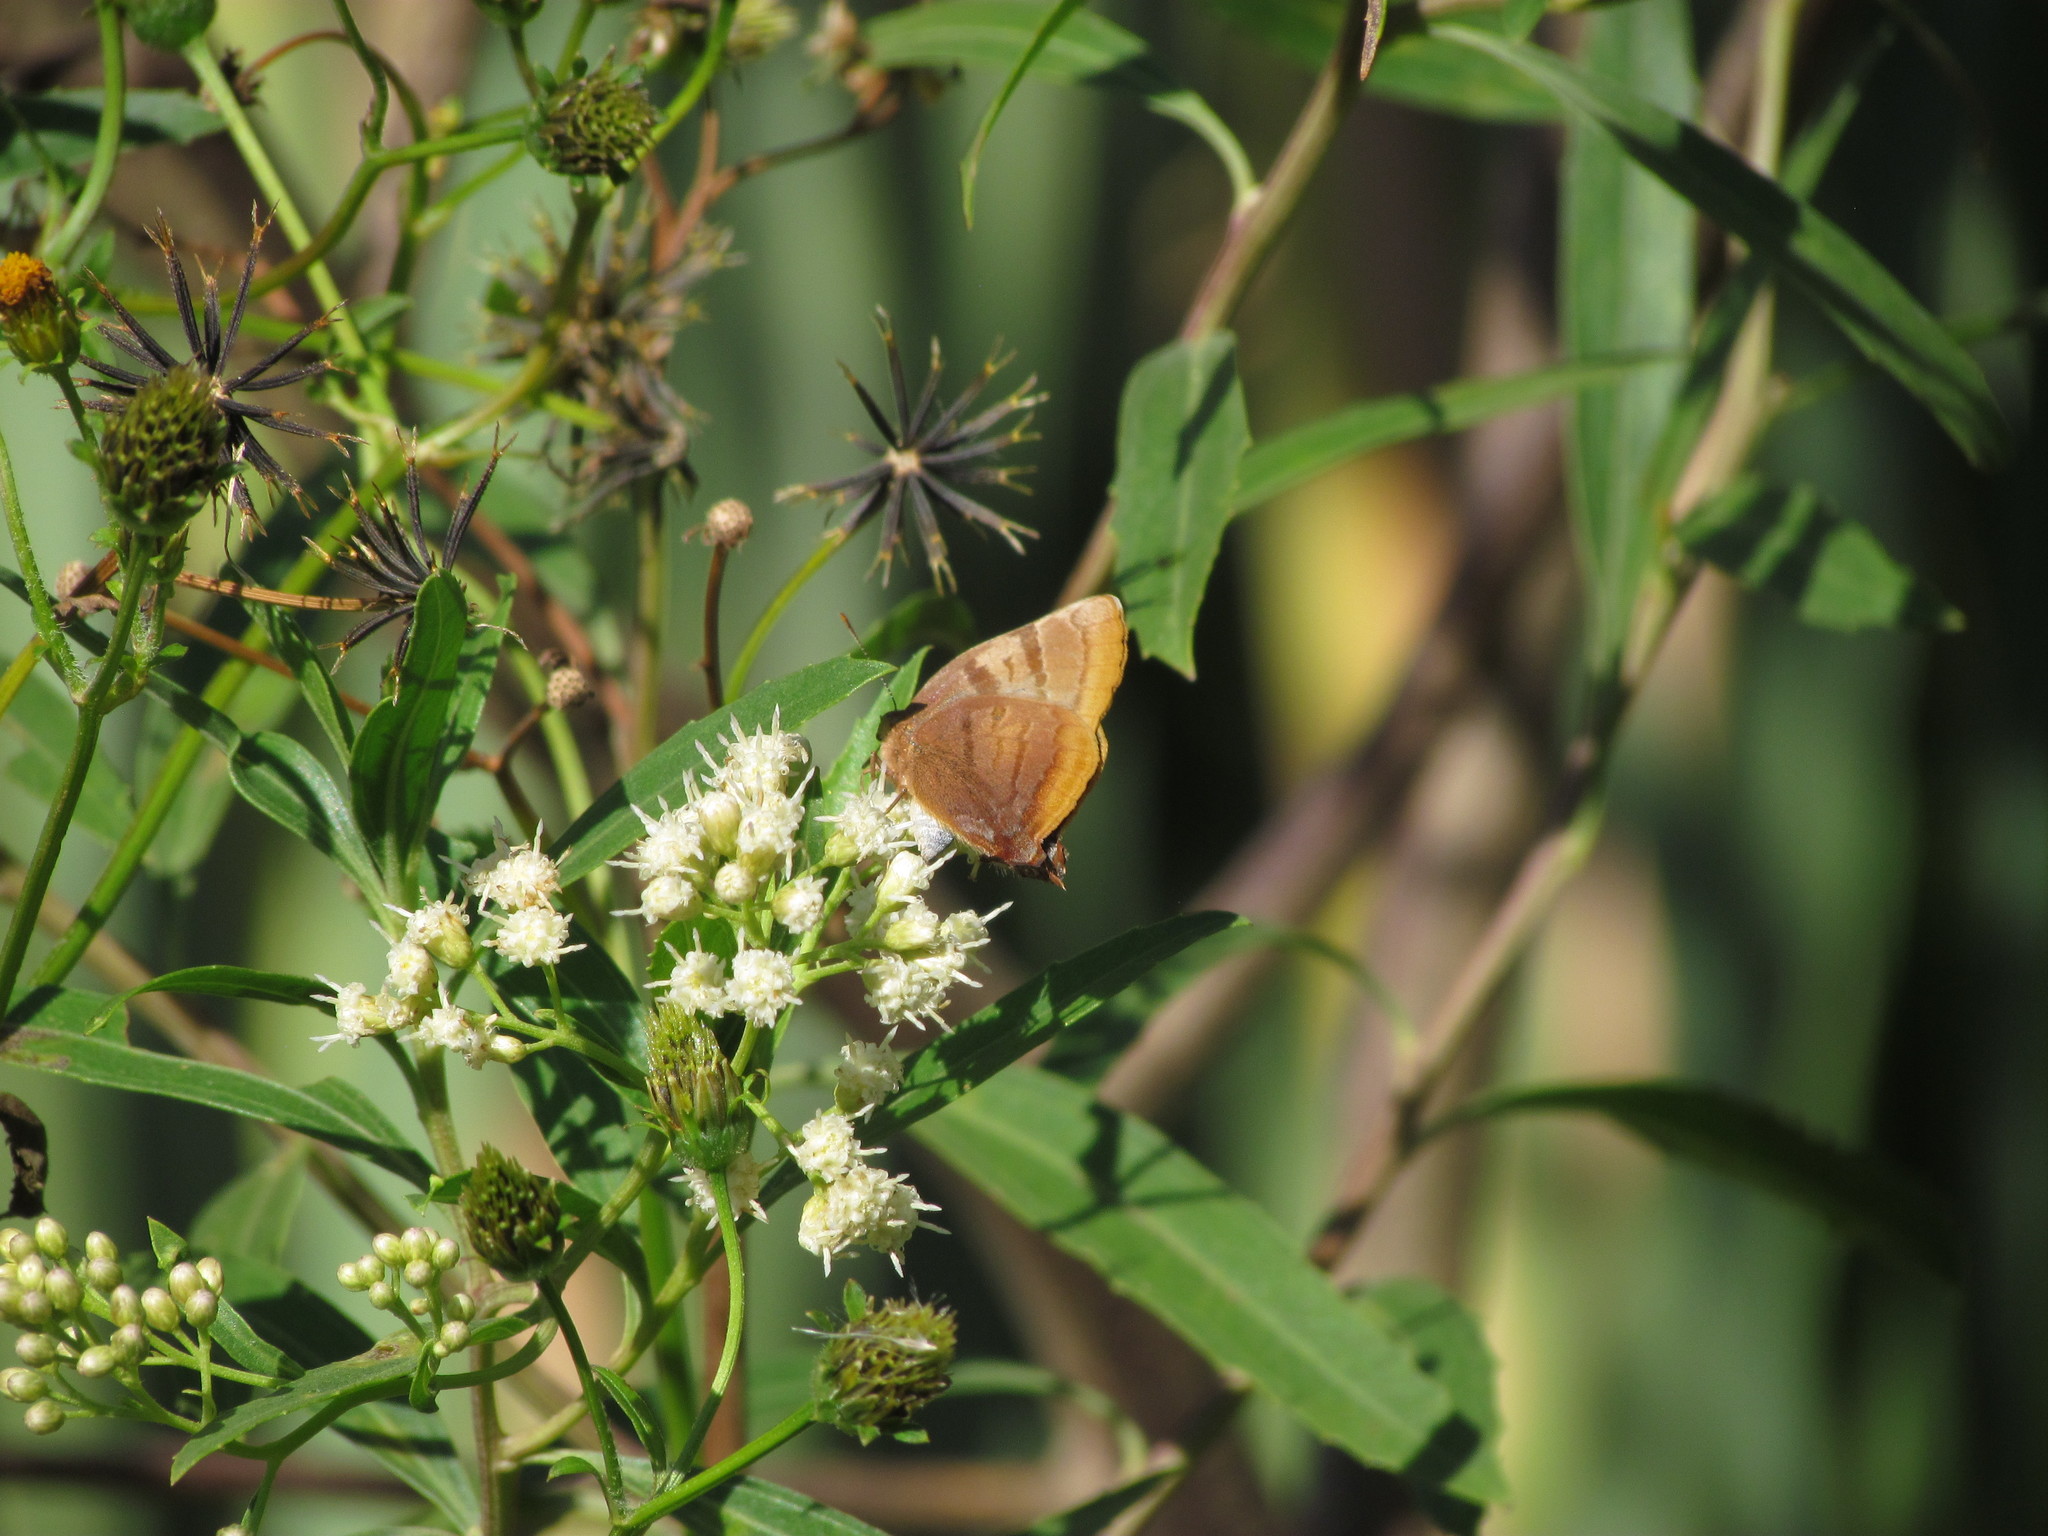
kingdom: Animalia
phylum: Arthropoda
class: Insecta
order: Lepidoptera
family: Lycaenidae
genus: Thecla
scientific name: Thecla marius
